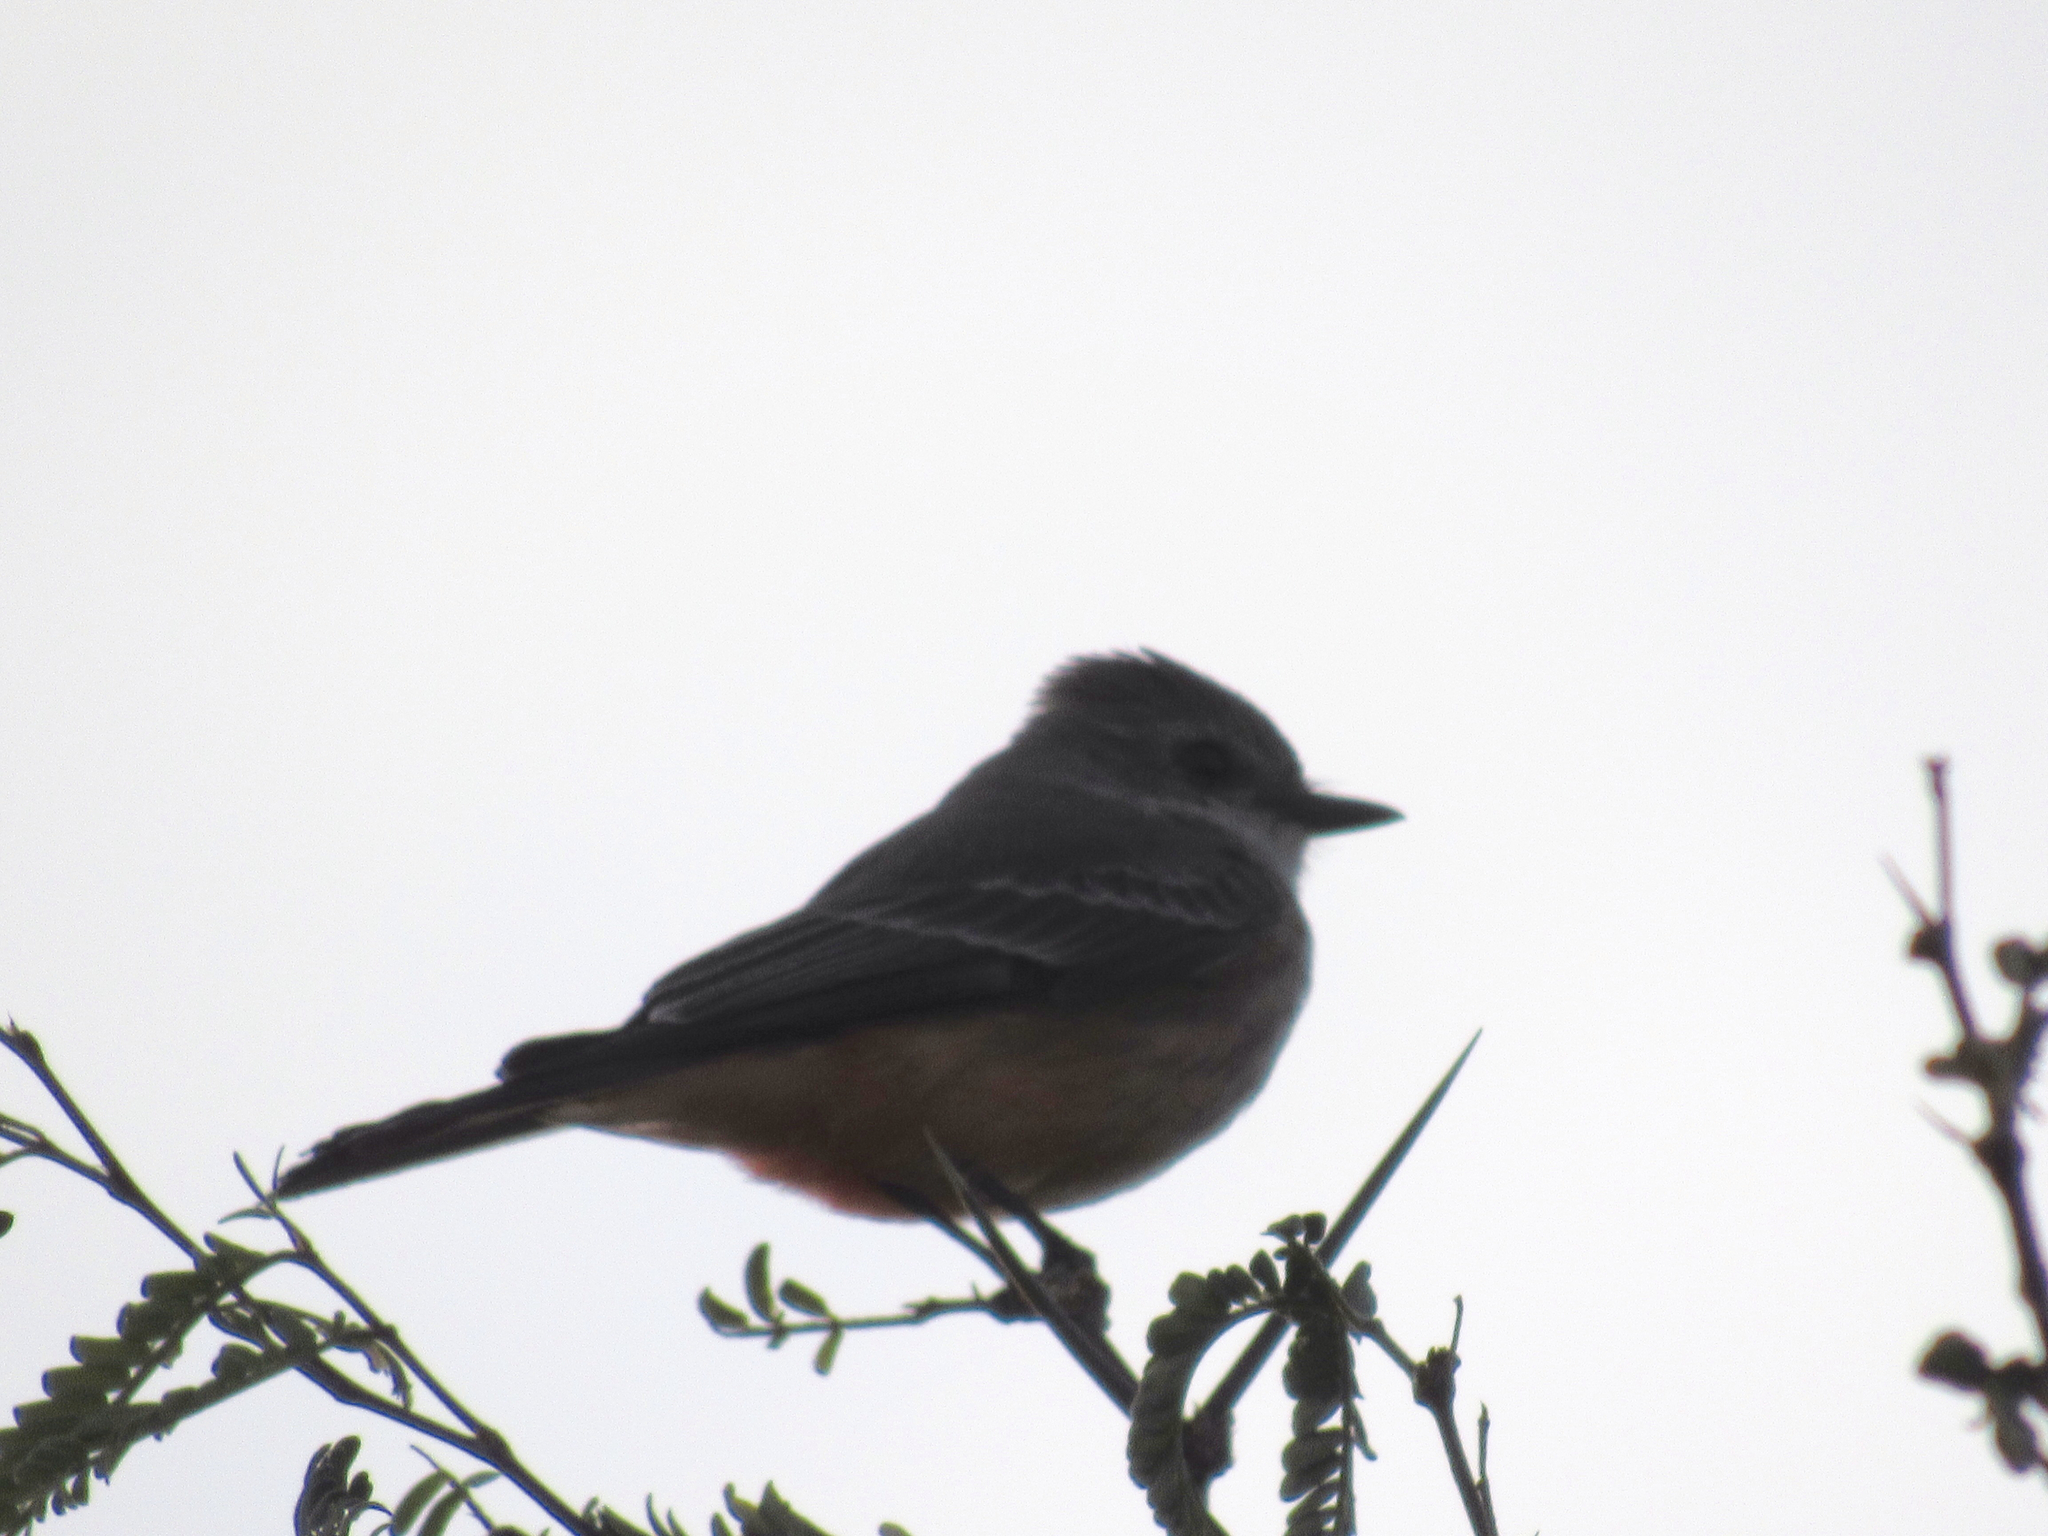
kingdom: Animalia
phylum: Chordata
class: Aves
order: Passeriformes
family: Tyrannidae
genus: Pyrocephalus
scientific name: Pyrocephalus rubinus
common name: Vermilion flycatcher
